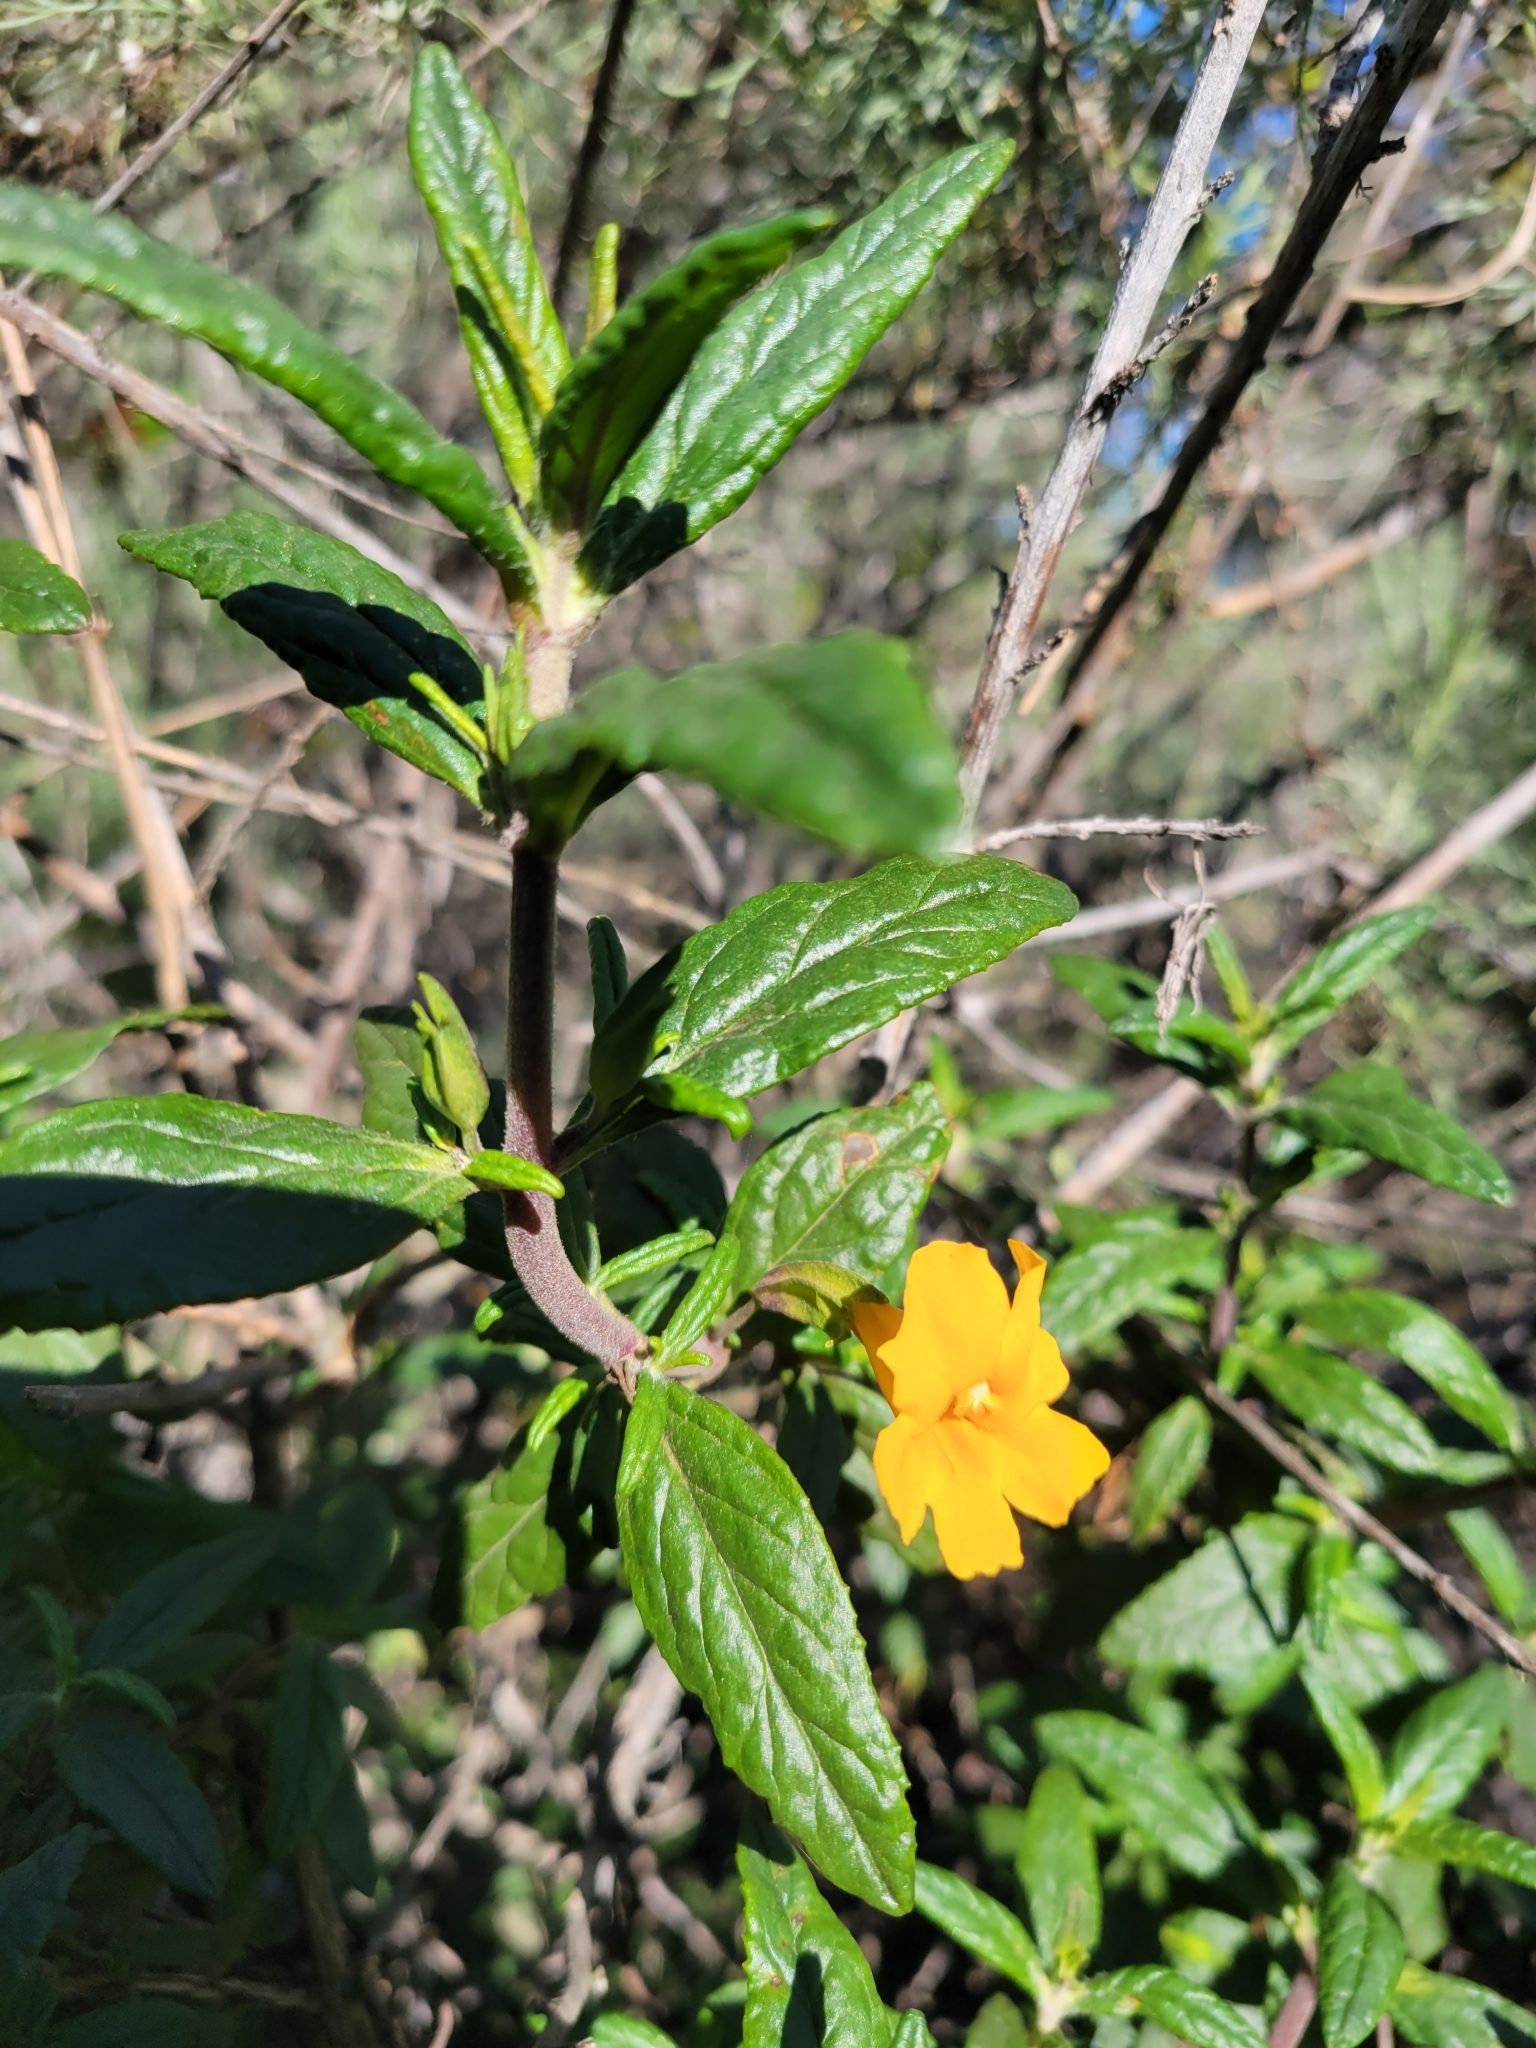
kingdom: Plantae
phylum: Tracheophyta
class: Magnoliopsida
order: Lamiales
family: Phrymaceae
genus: Diplacus
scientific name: Diplacus aurantiacus
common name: Bush monkey-flower
